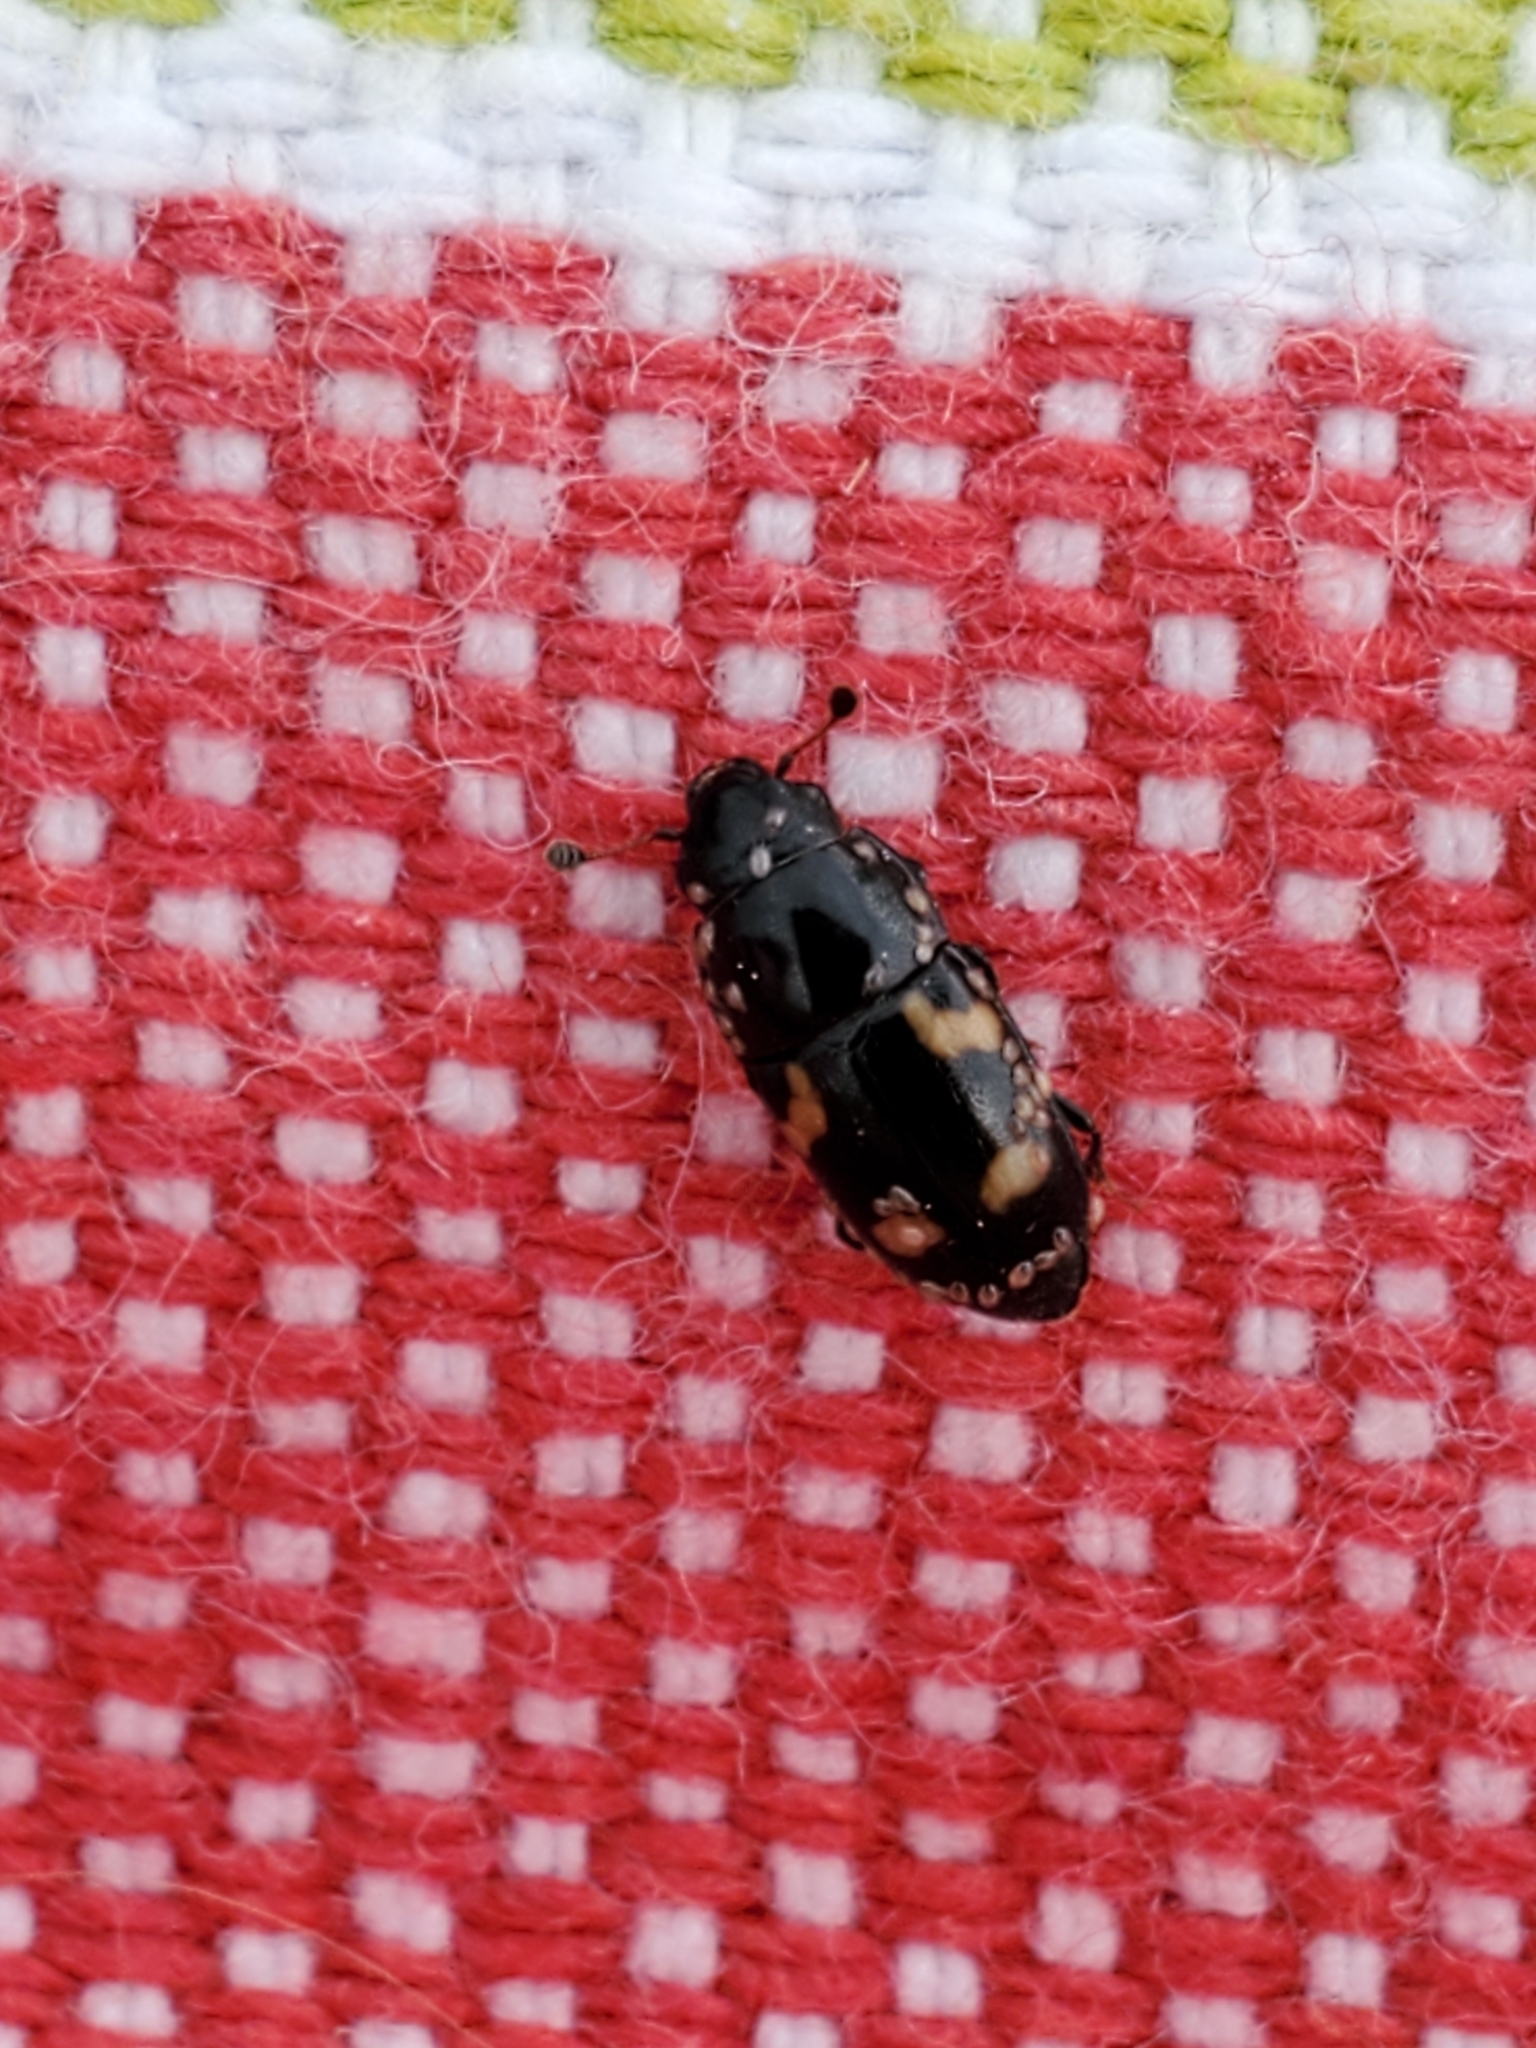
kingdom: Animalia
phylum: Arthropoda
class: Insecta
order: Coleoptera
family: Nitidulidae
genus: Glischrochilus
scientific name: Glischrochilus quadrisignatus
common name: Picnic beetle
